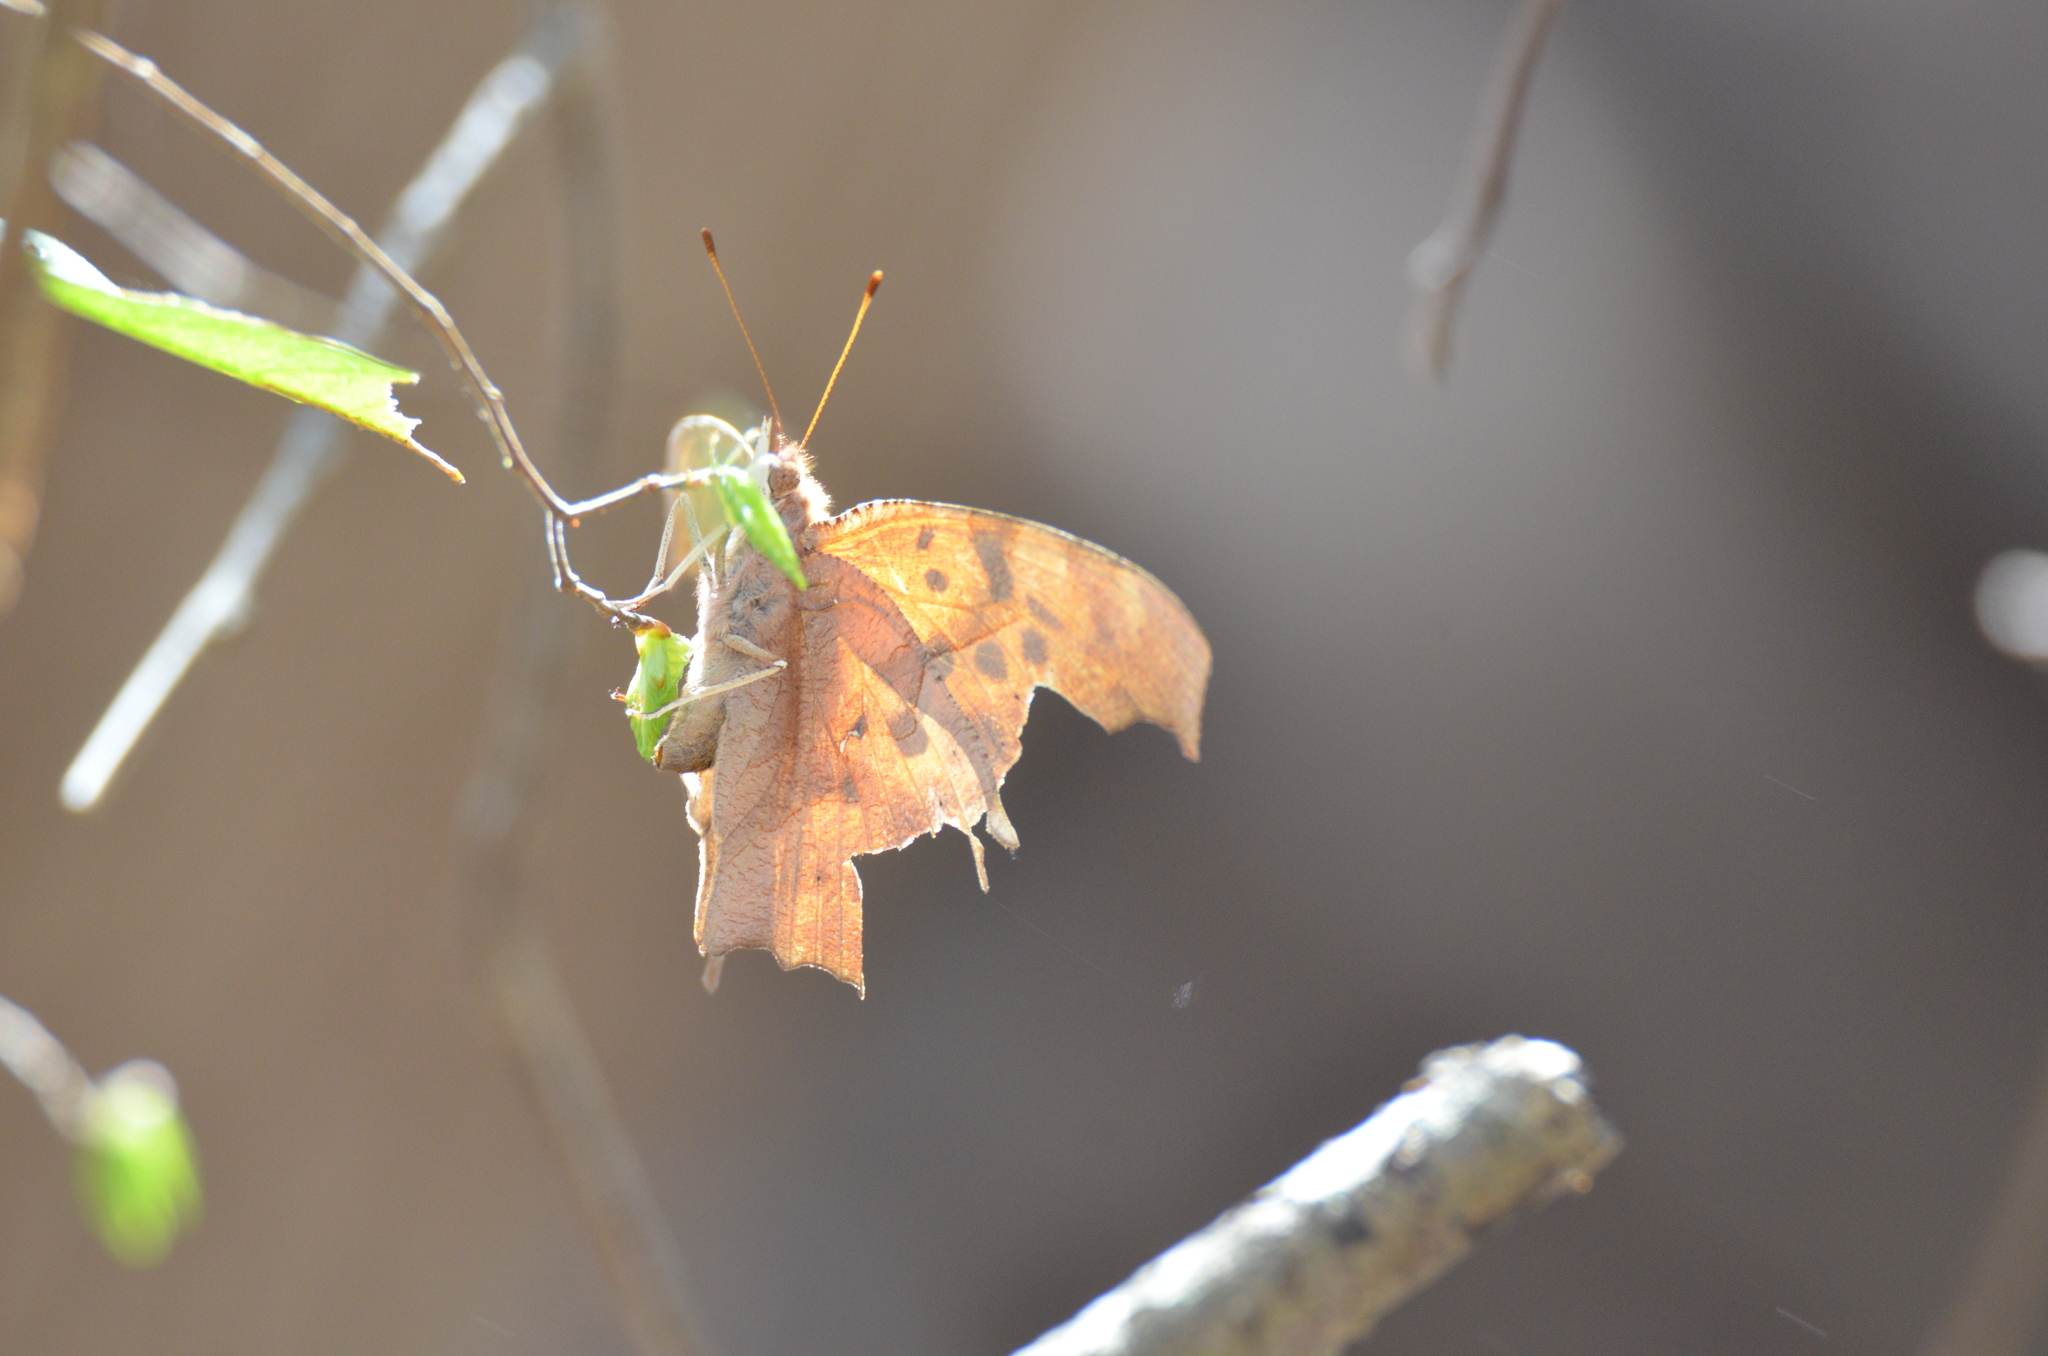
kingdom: Animalia
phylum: Arthropoda
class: Insecta
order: Lepidoptera
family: Nymphalidae
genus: Polygonia
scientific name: Polygonia interrogationis
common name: Question mark
